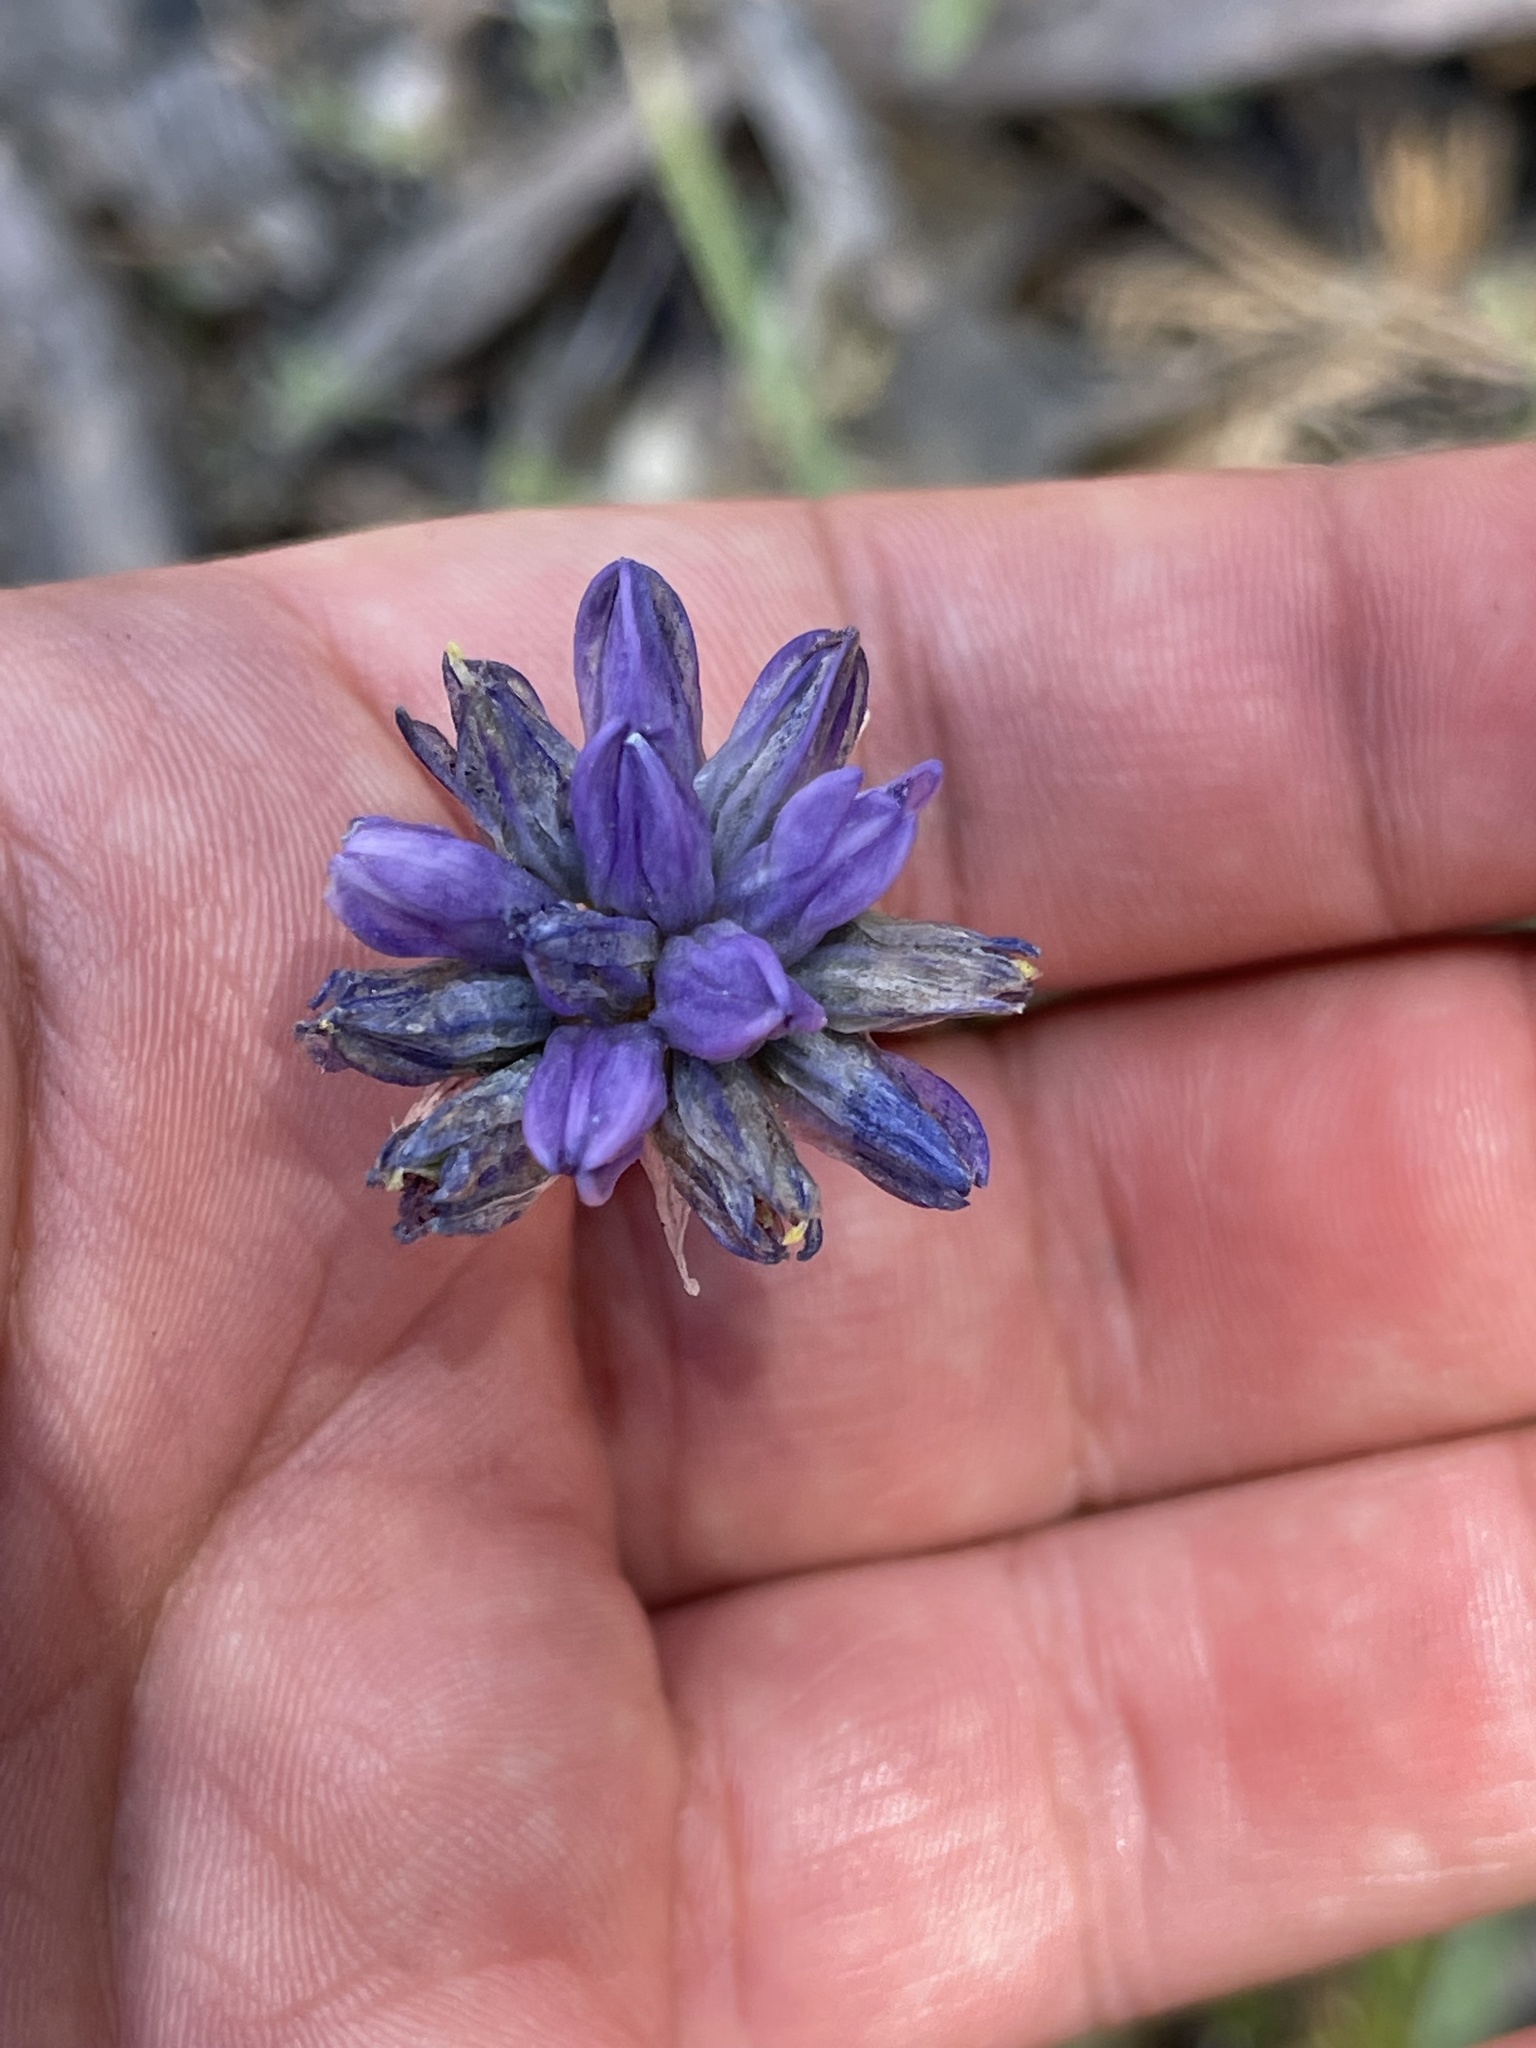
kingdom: Plantae
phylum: Tracheophyta
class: Liliopsida
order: Asparagales
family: Asparagaceae
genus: Dipterostemon
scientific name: Dipterostemon capitatus
